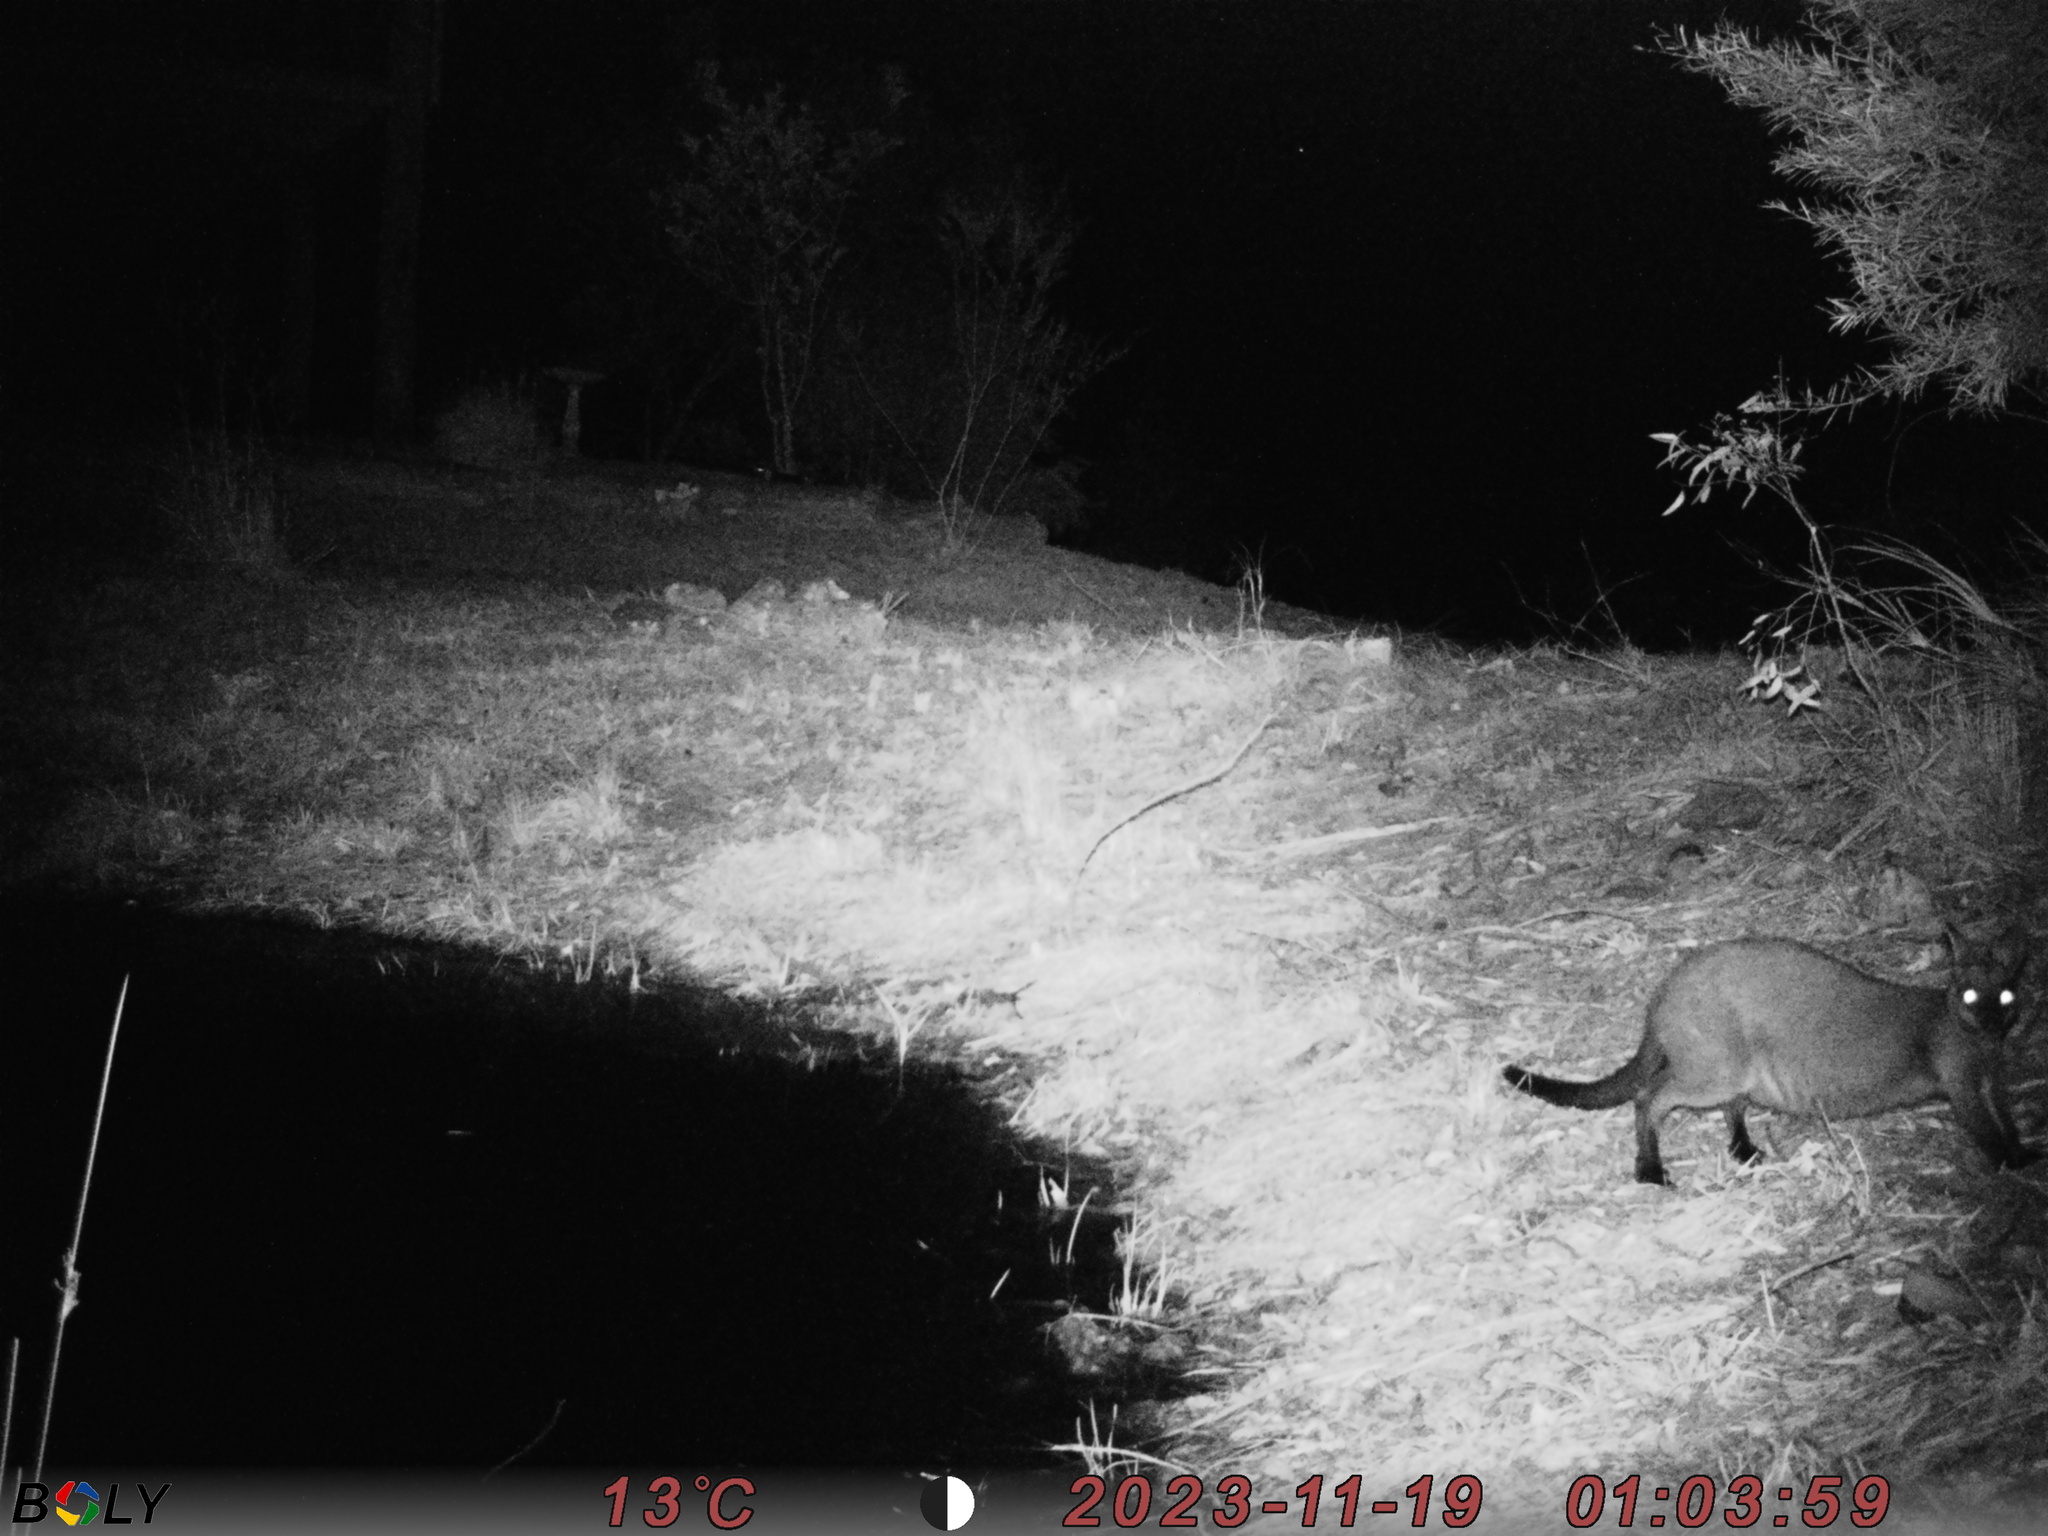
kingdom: Animalia
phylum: Chordata
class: Mammalia
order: Diprotodontia
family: Macropodidae
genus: Wallabia
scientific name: Wallabia bicolor
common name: Swamp wallaby
